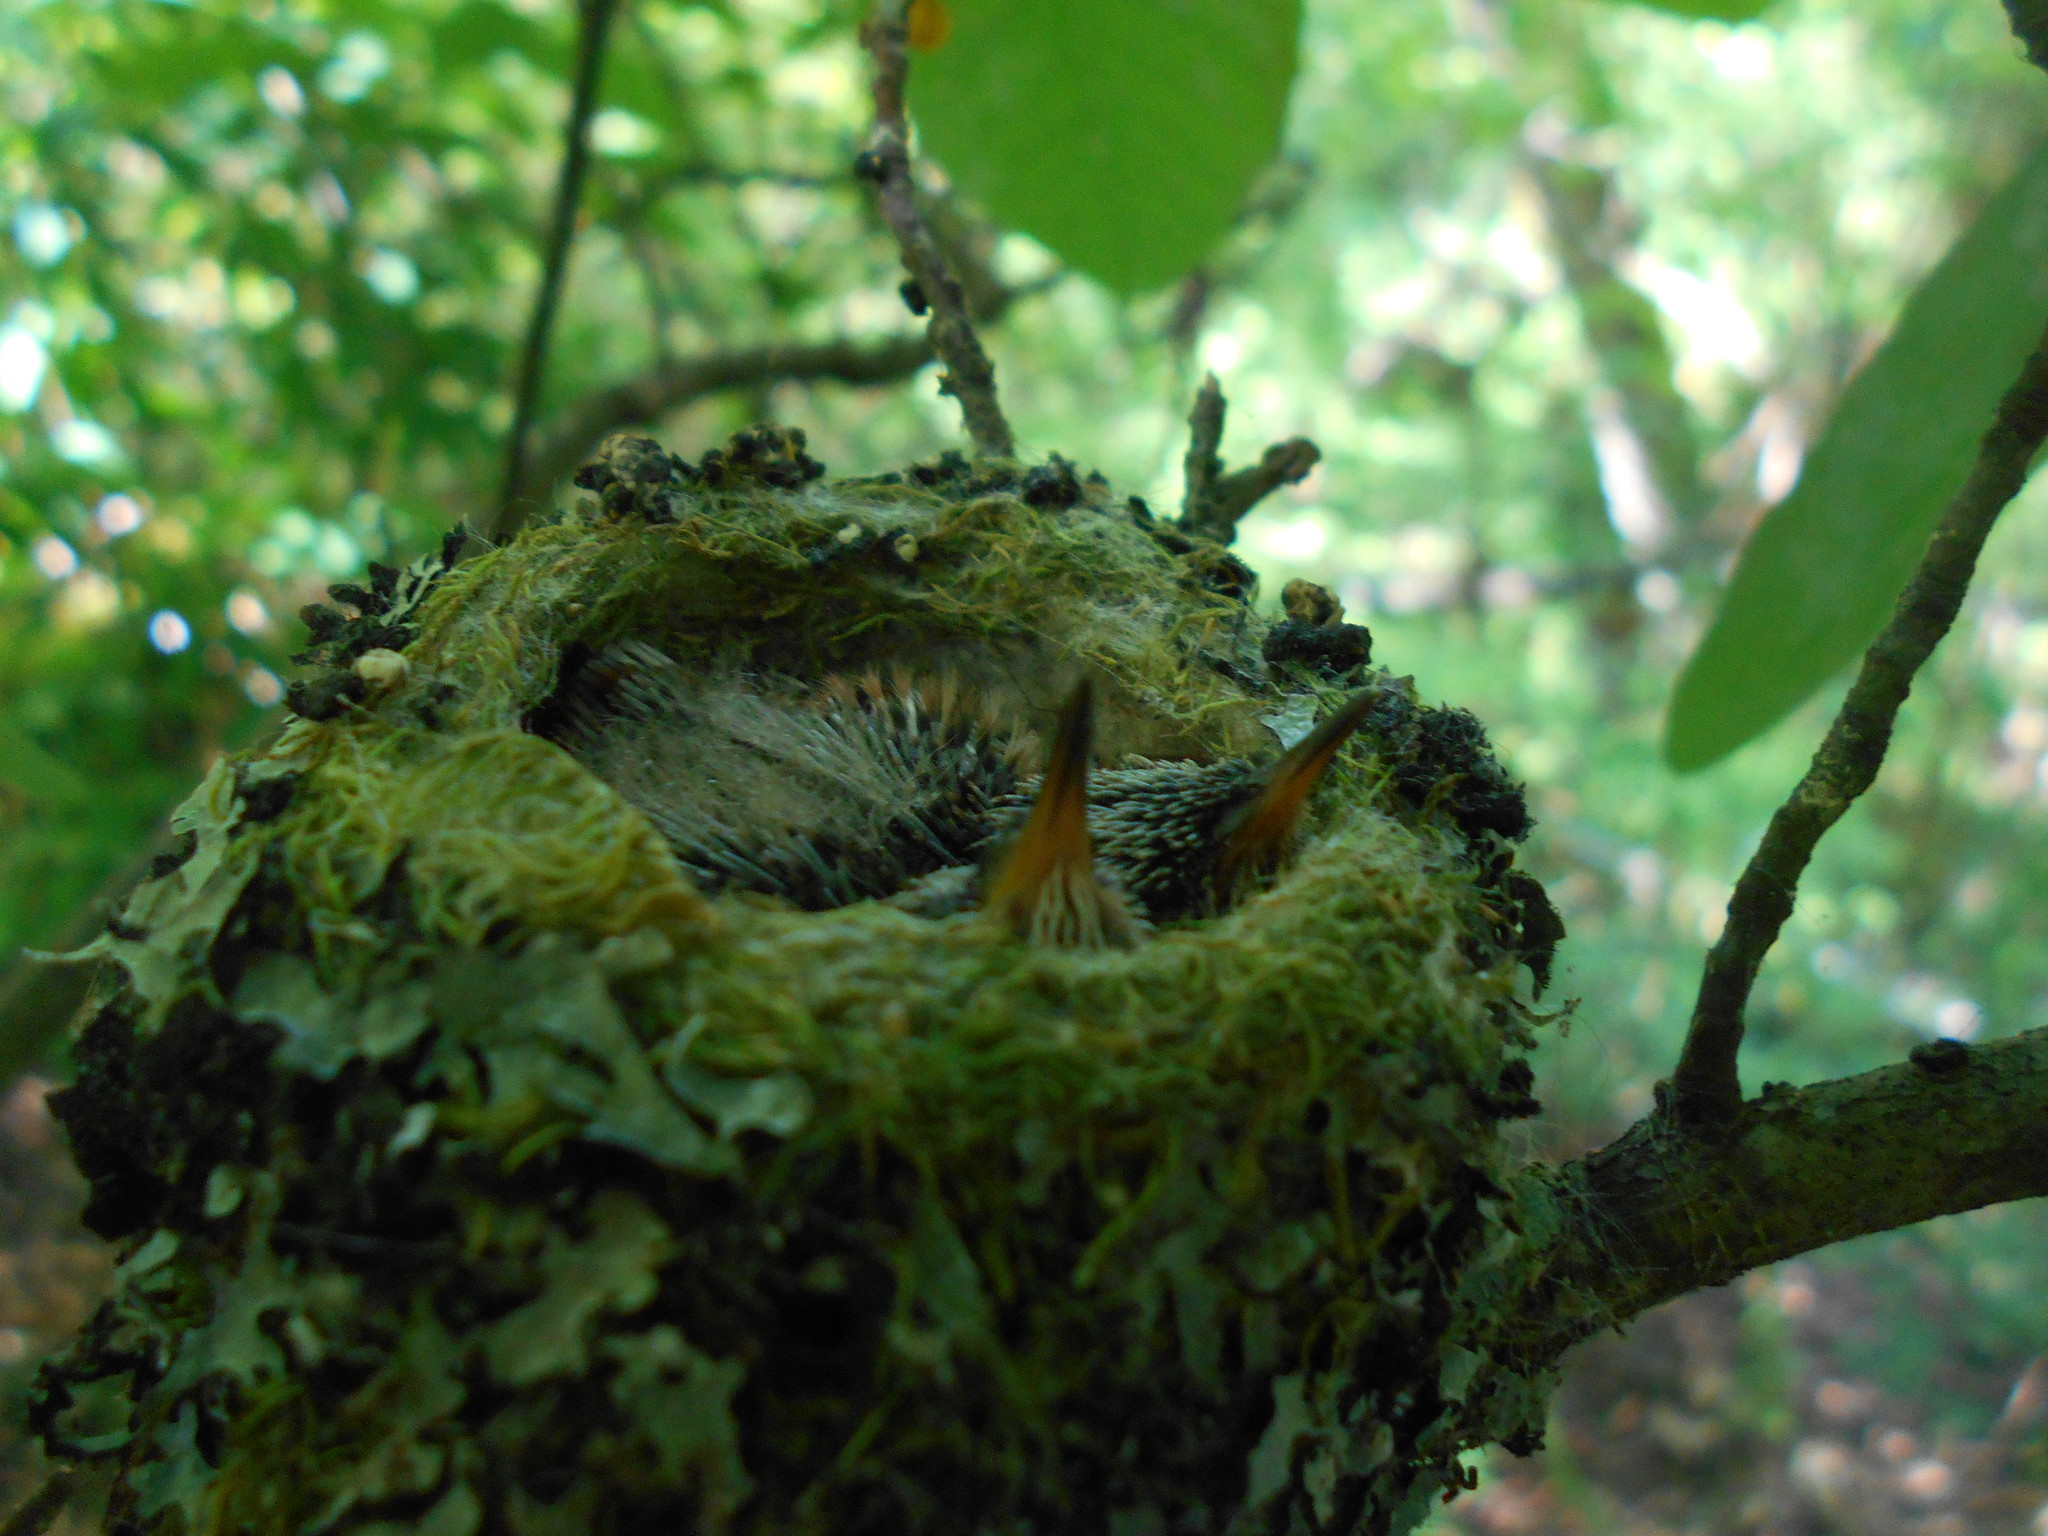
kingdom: Animalia
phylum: Chordata
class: Aves
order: Apodiformes
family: Trochilidae
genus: Selasphorus
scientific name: Selasphorus rufus
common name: Rufous hummingbird
